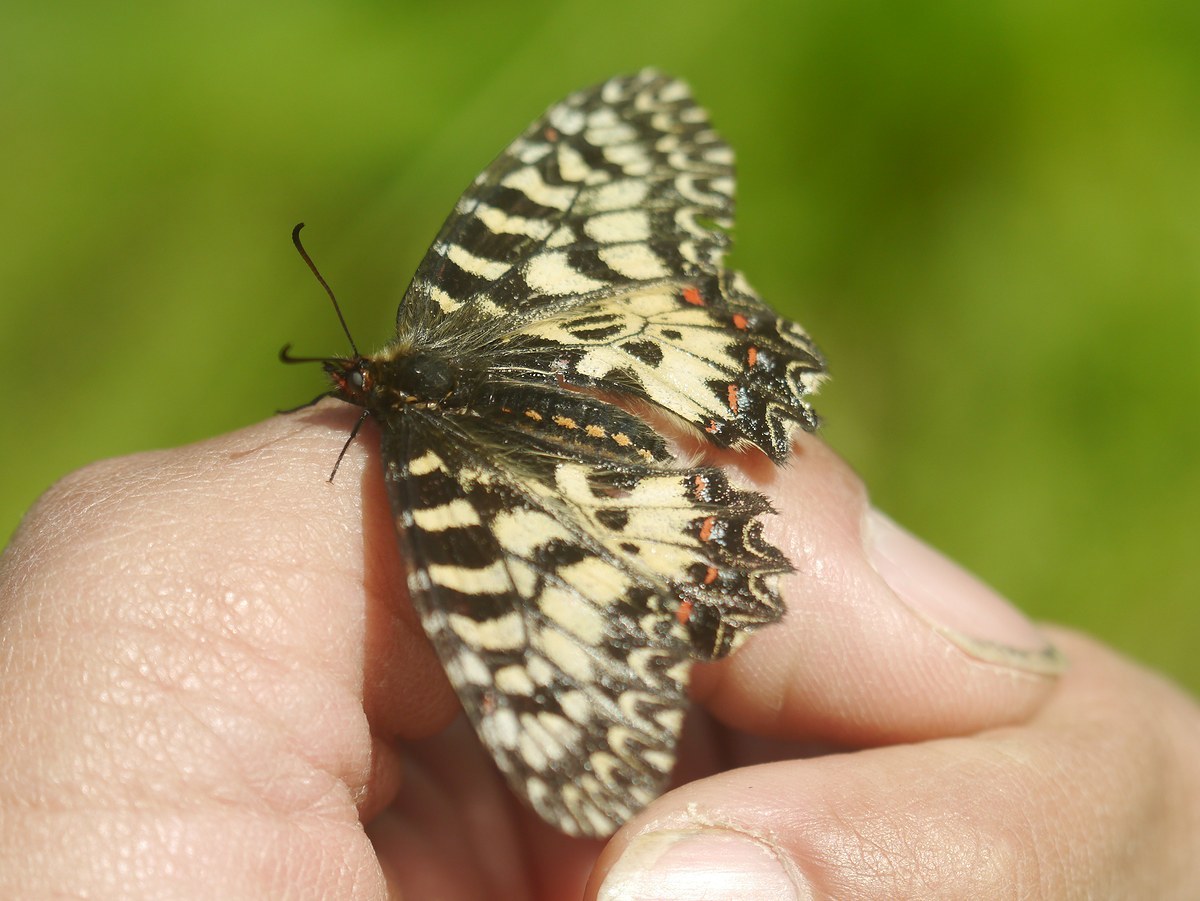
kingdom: Animalia
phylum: Arthropoda
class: Insecta
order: Lepidoptera
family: Papilionidae
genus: Zerynthia
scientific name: Zerynthia polyxena
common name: Southern festoon
